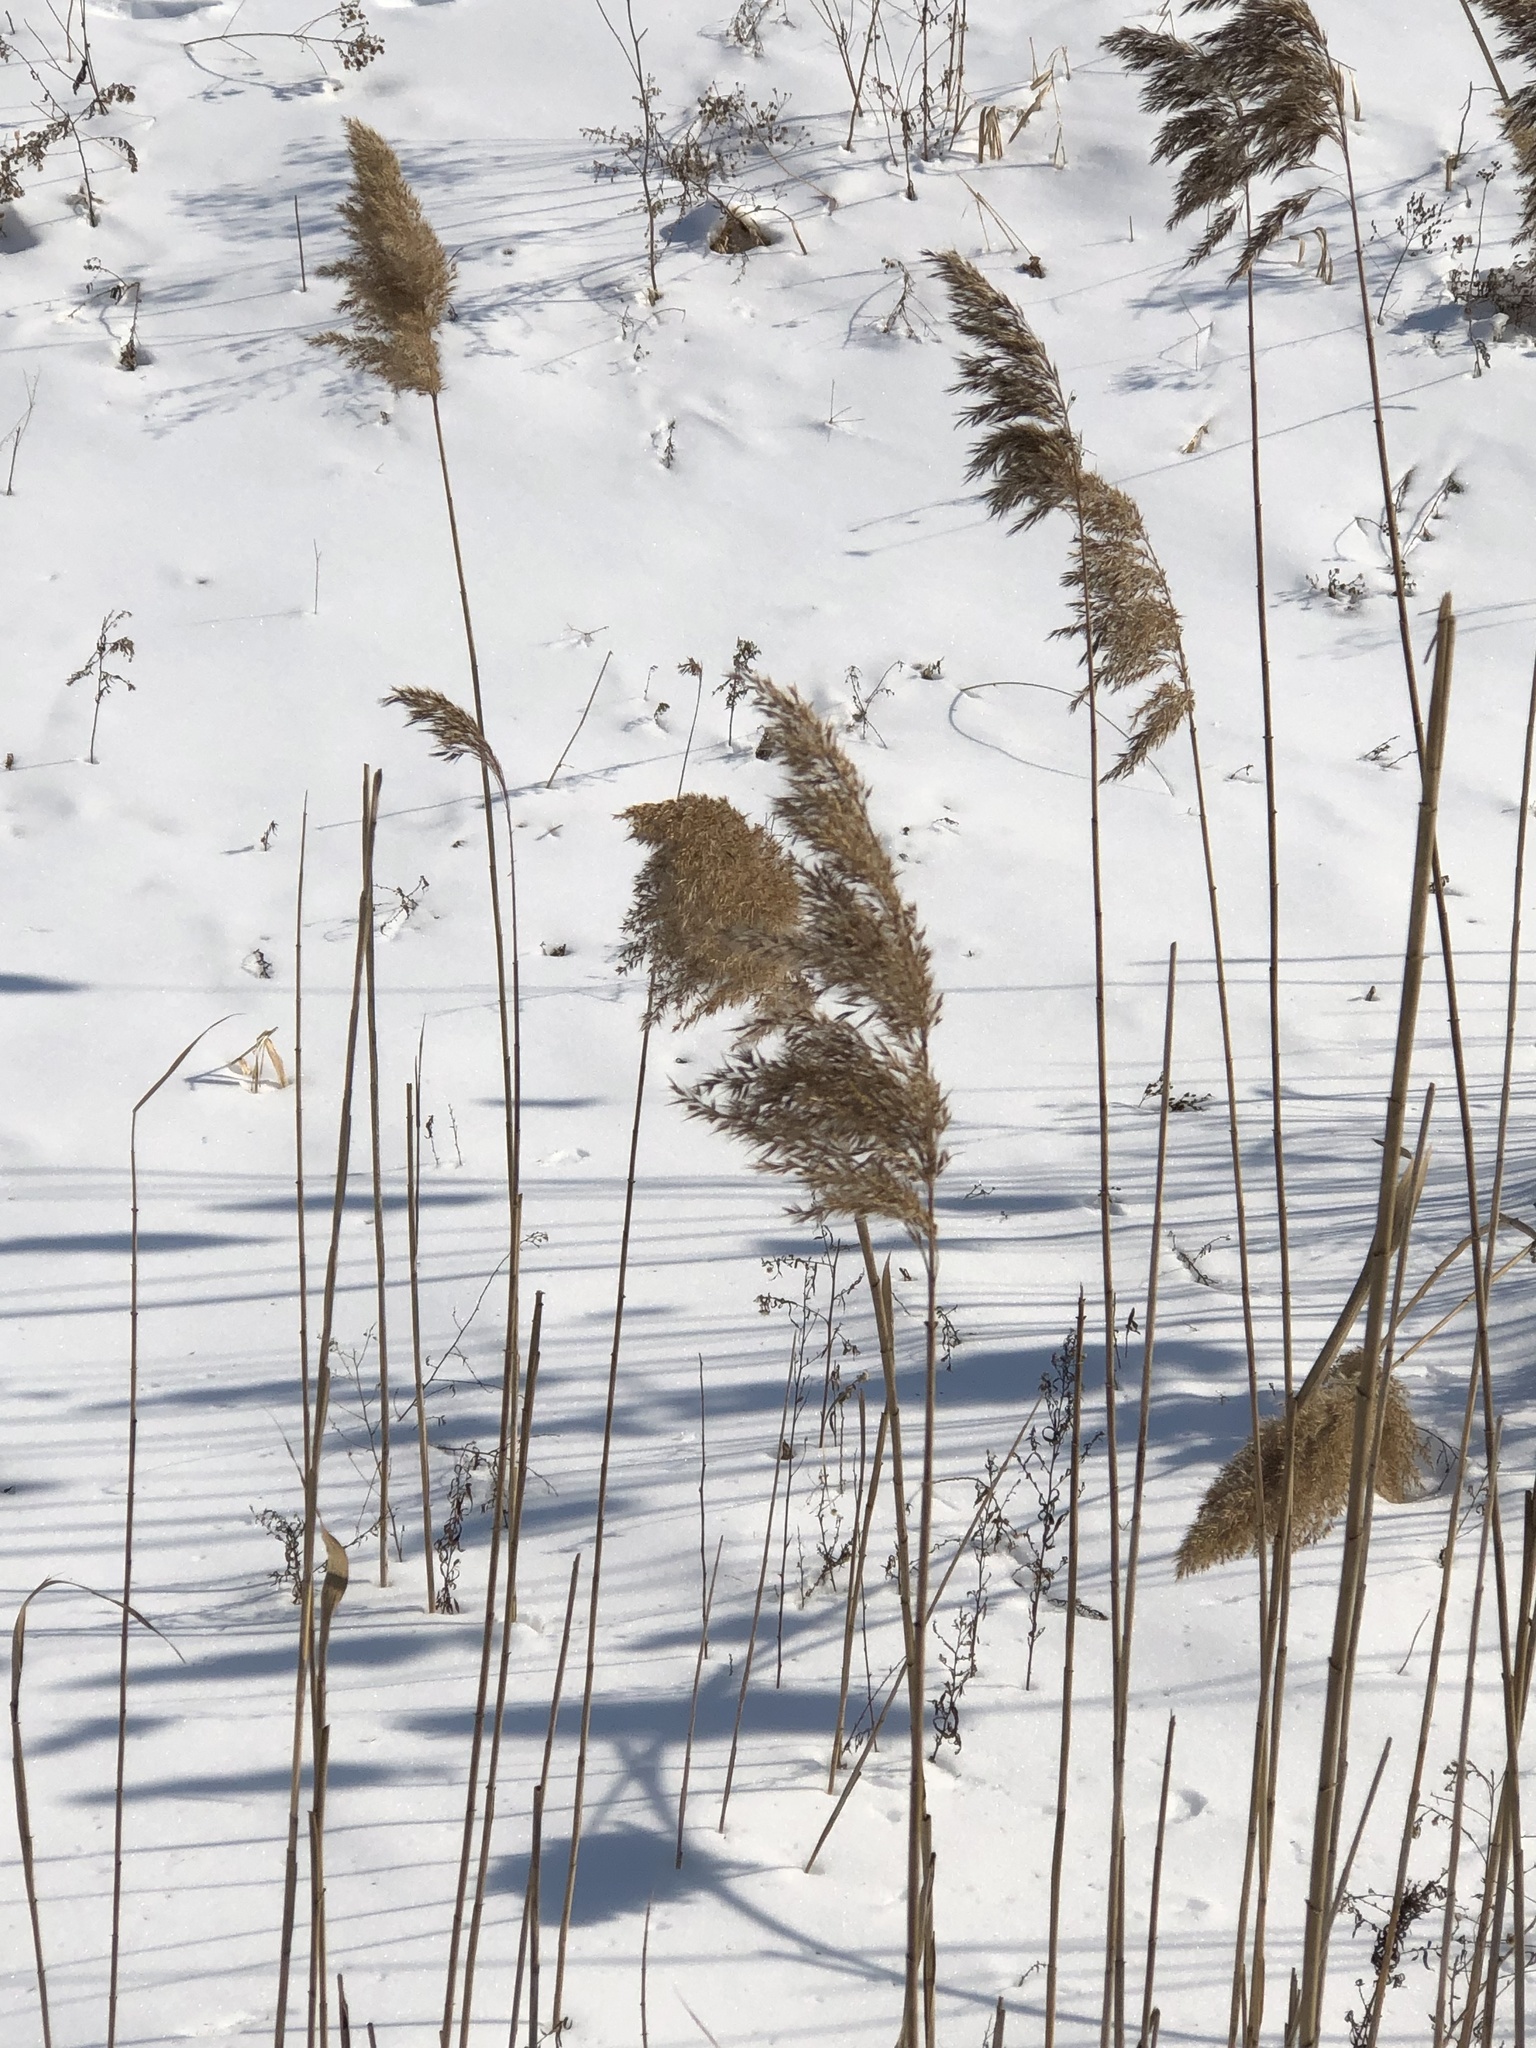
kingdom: Plantae
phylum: Tracheophyta
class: Liliopsida
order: Poales
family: Poaceae
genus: Phragmites
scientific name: Phragmites australis
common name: Common reed
